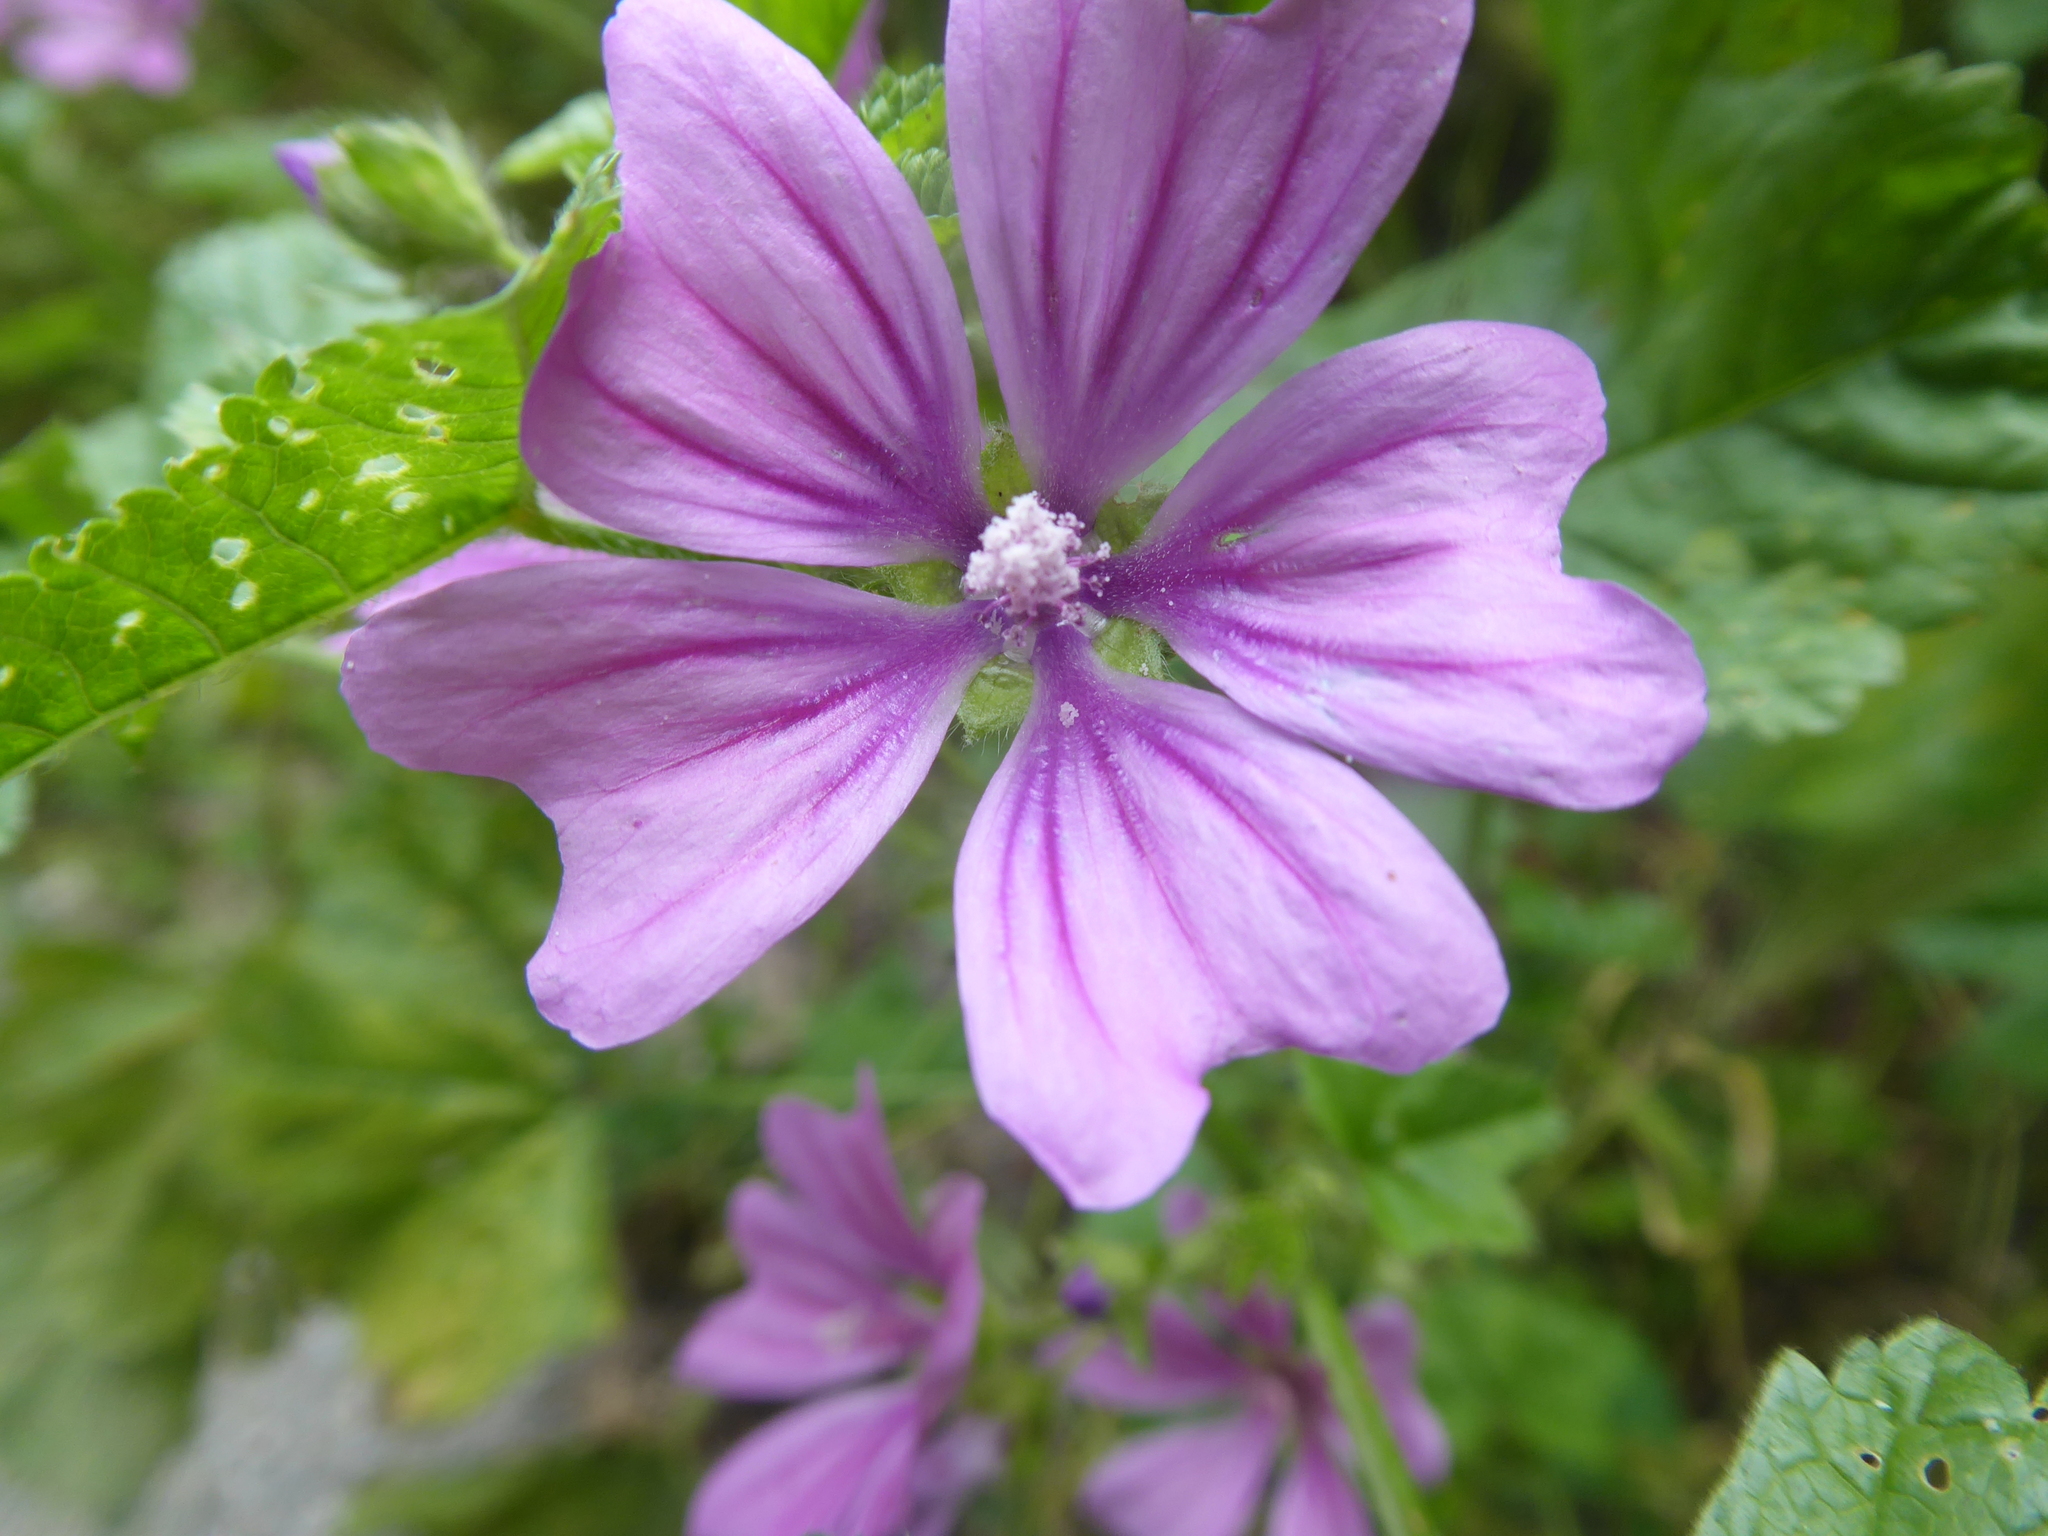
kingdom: Plantae
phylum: Tracheophyta
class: Magnoliopsida
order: Malvales
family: Malvaceae
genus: Malva
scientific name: Malva sylvestris
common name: Common mallow
